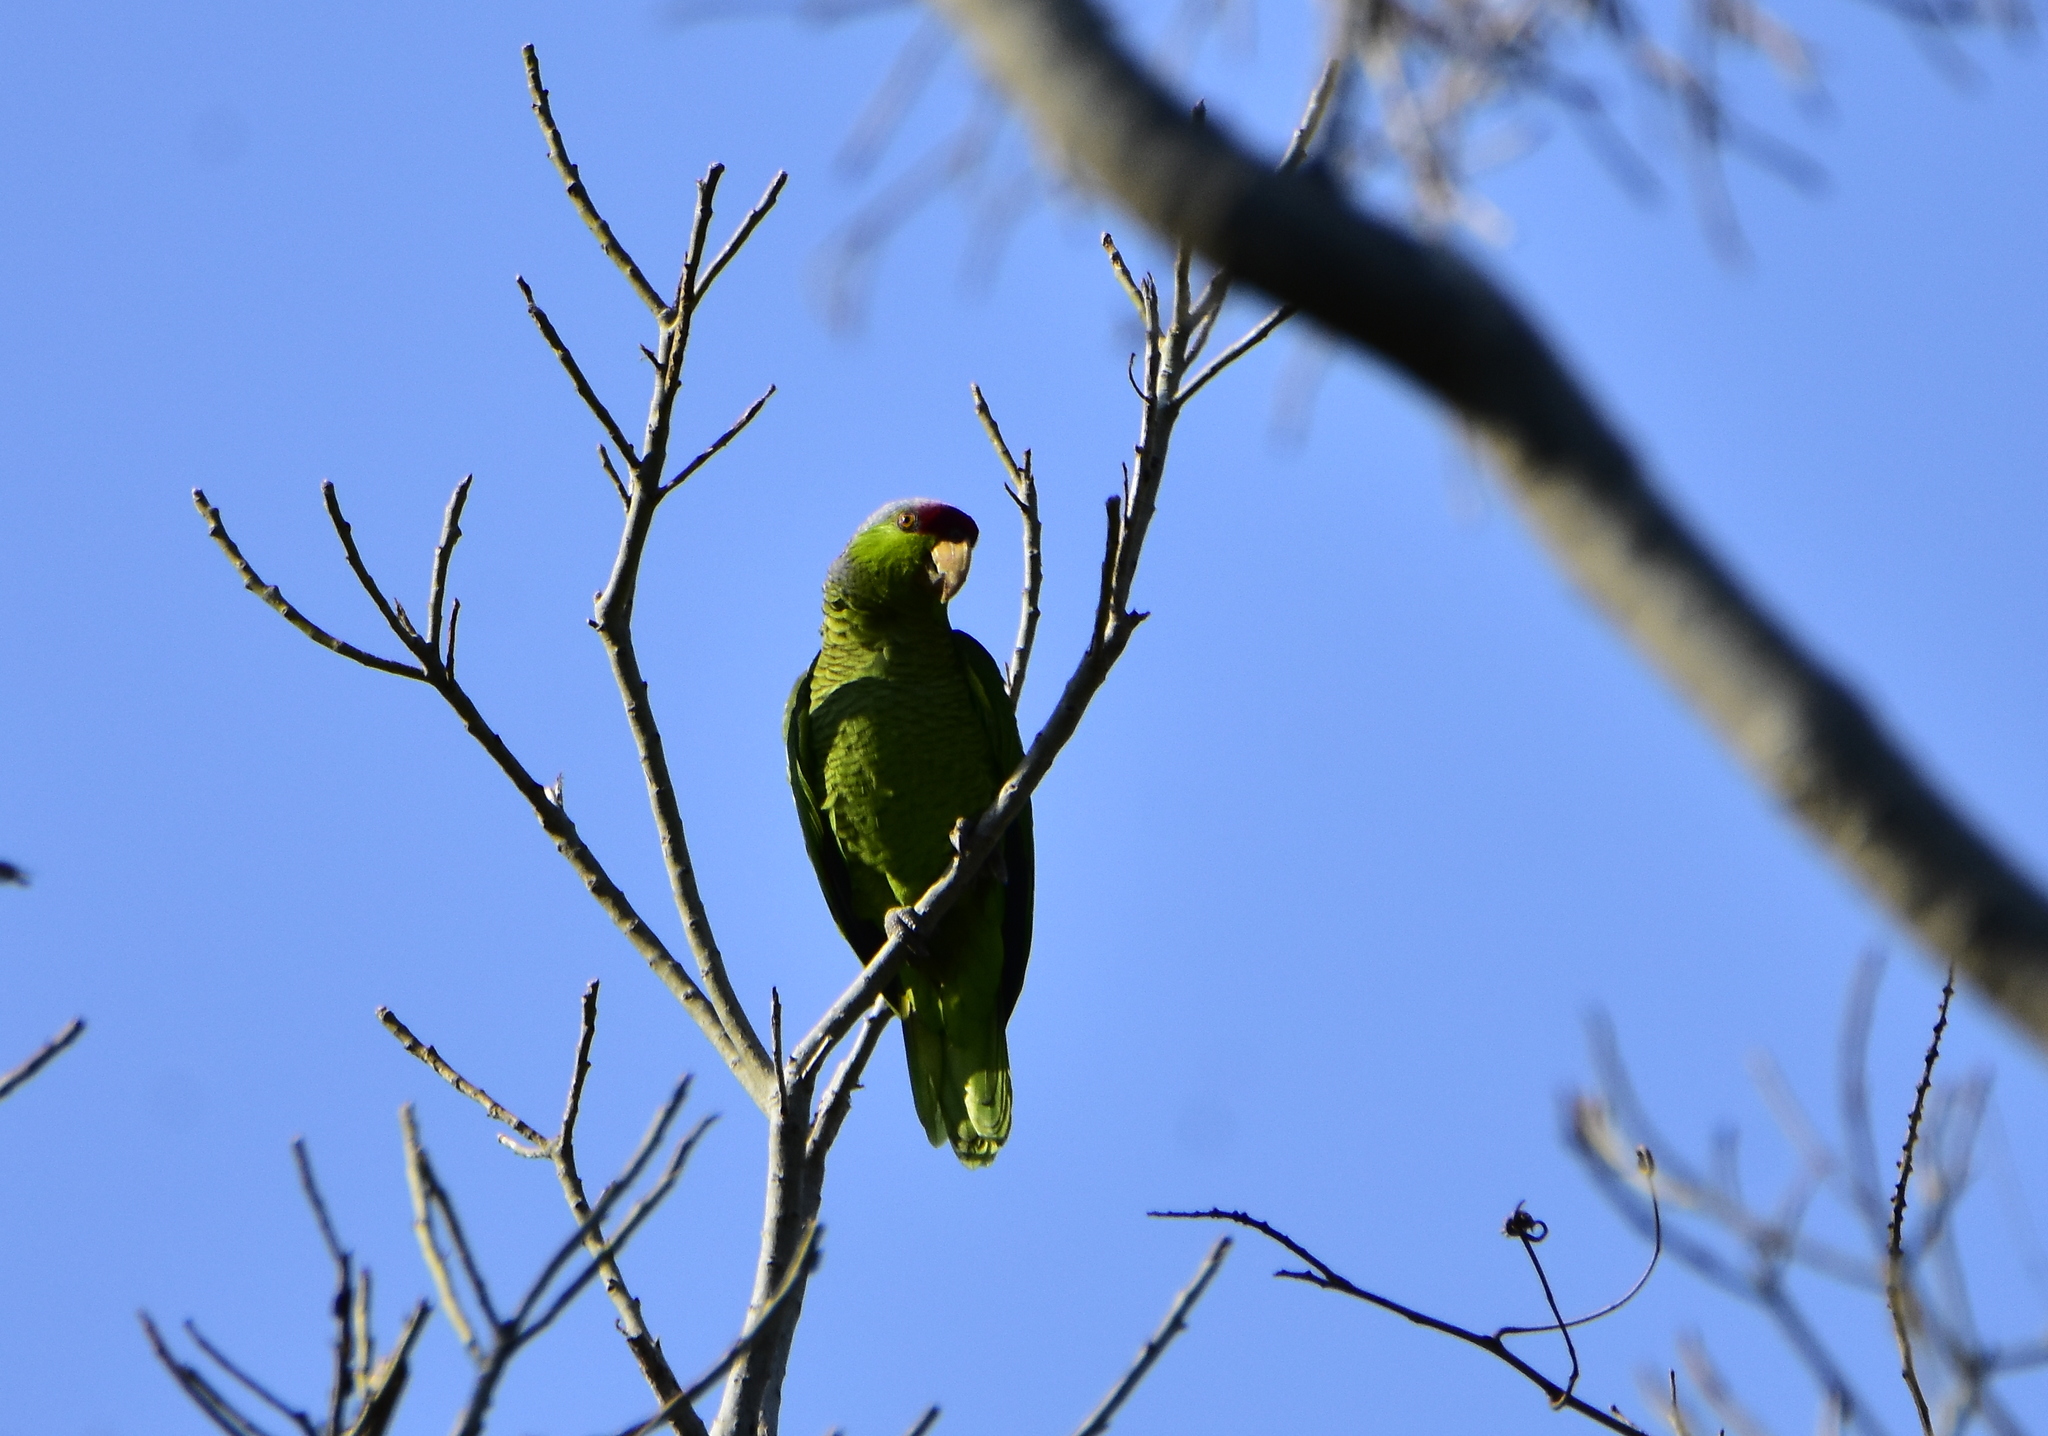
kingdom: Animalia
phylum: Chordata
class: Aves
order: Psittaciformes
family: Psittacidae
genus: Amazona
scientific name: Amazona finschi
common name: Lilac-crowned amazon
